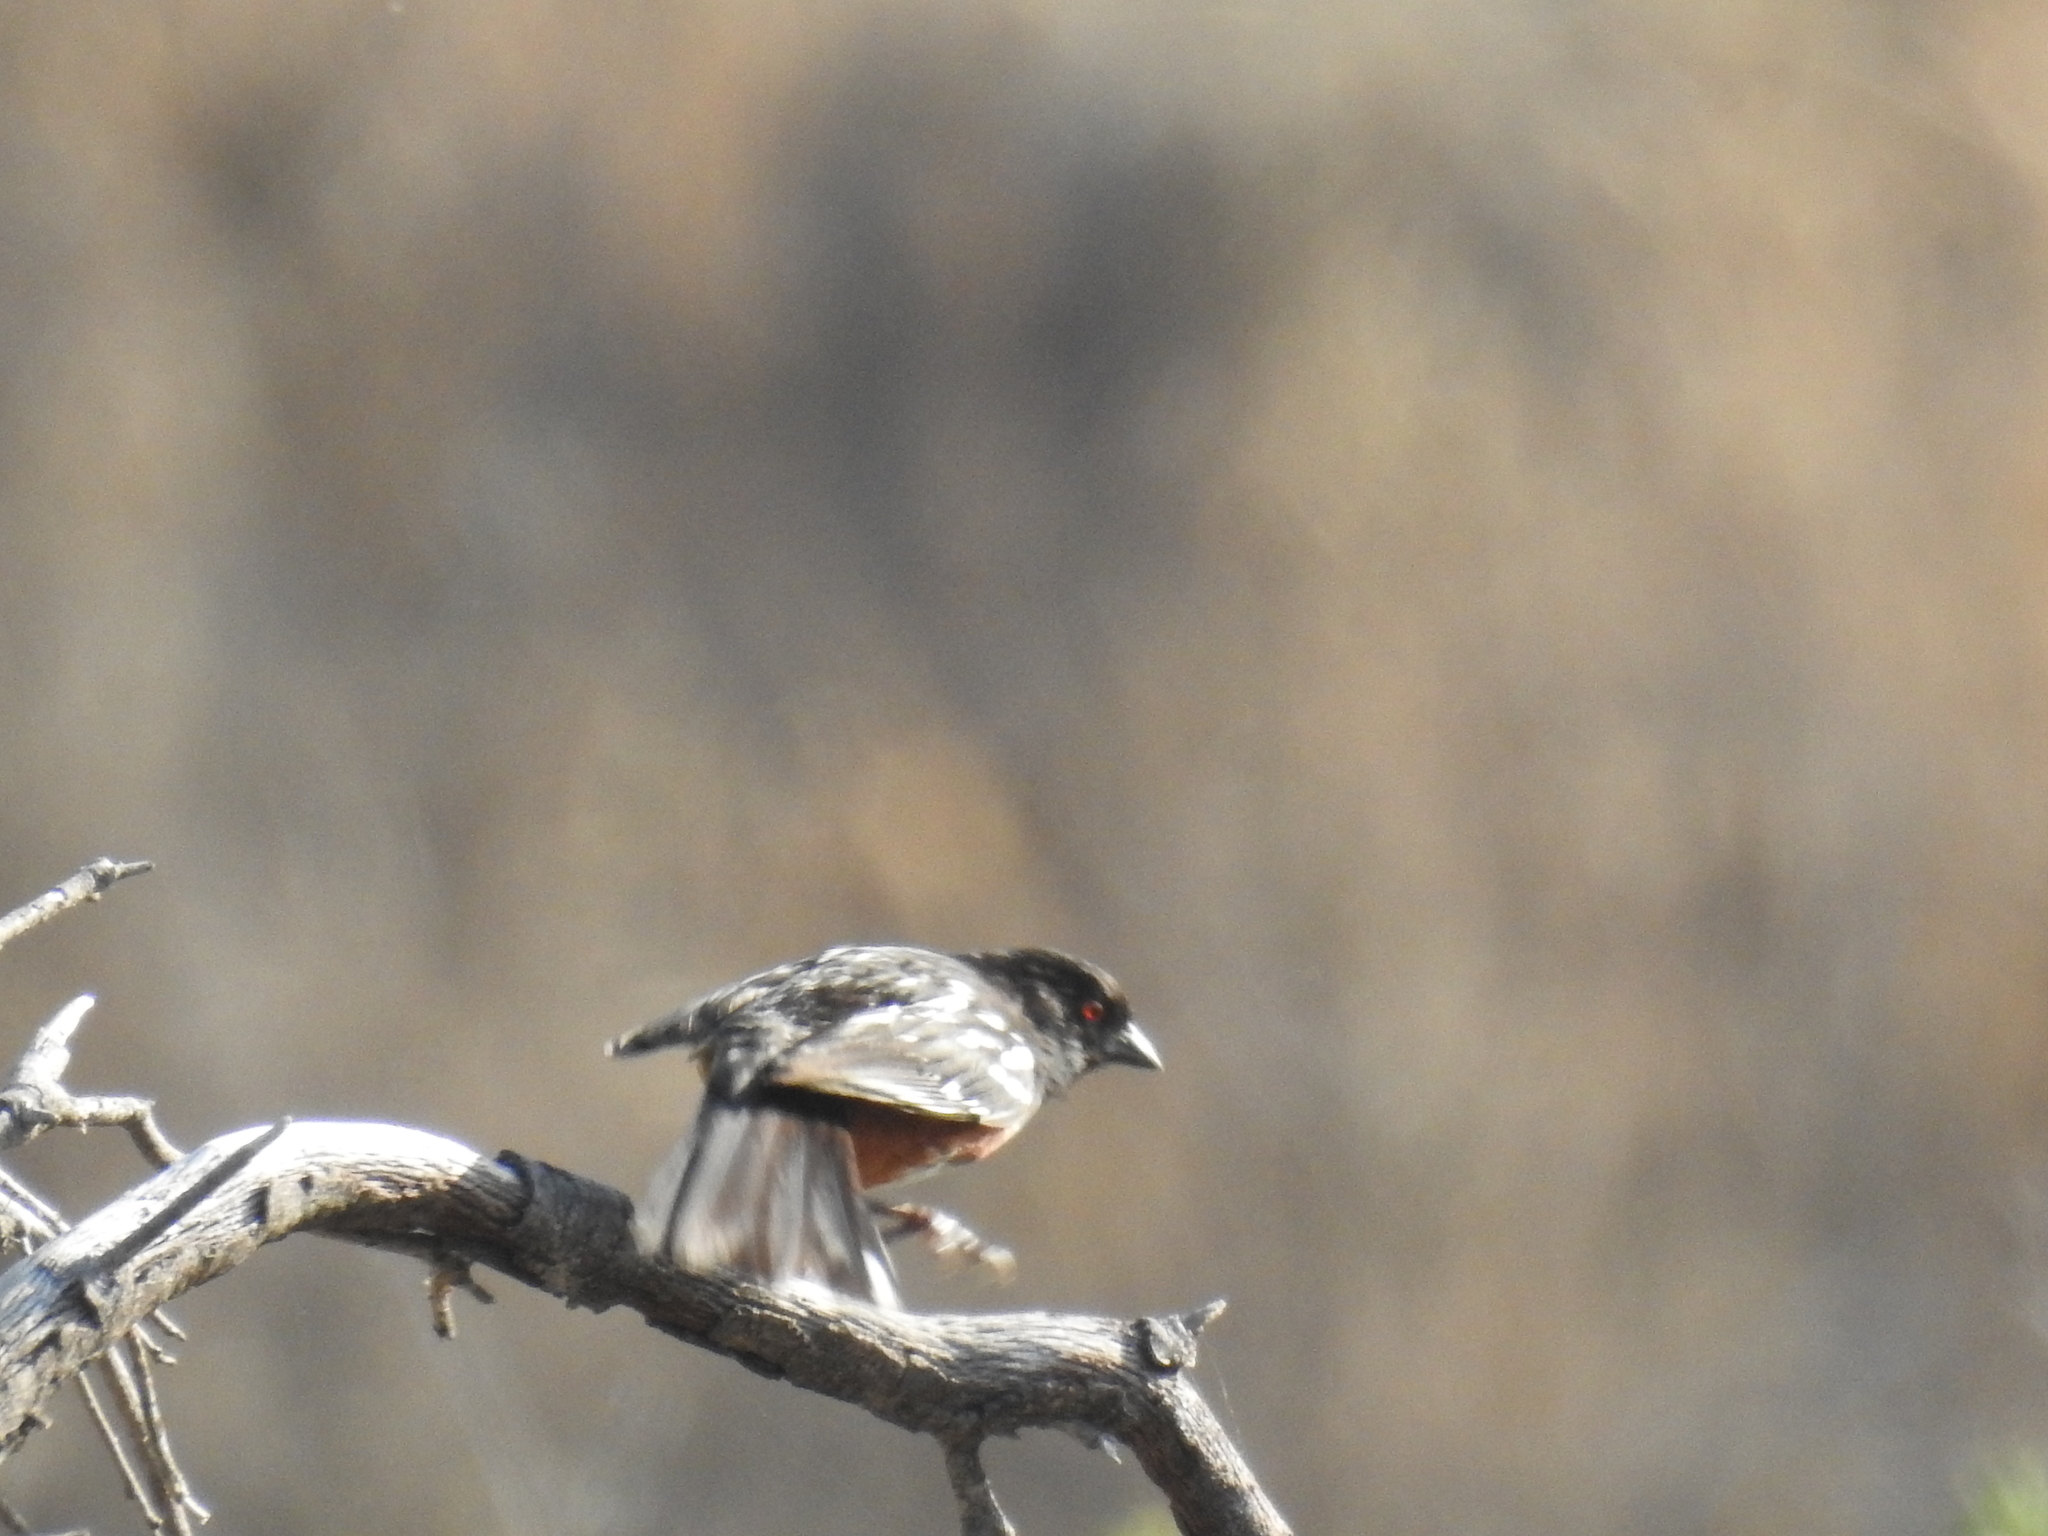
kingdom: Animalia
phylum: Chordata
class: Aves
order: Passeriformes
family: Passerellidae
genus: Pipilo
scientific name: Pipilo maculatus
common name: Spotted towhee
